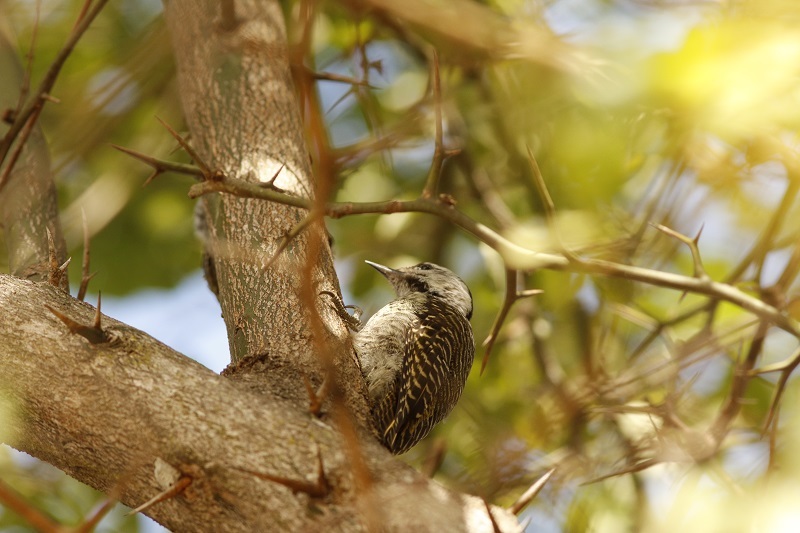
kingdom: Animalia
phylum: Chordata
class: Aves
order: Piciformes
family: Picidae
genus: Dendropicos
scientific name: Dendropicos fuscescens
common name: Cardinal woodpecker
